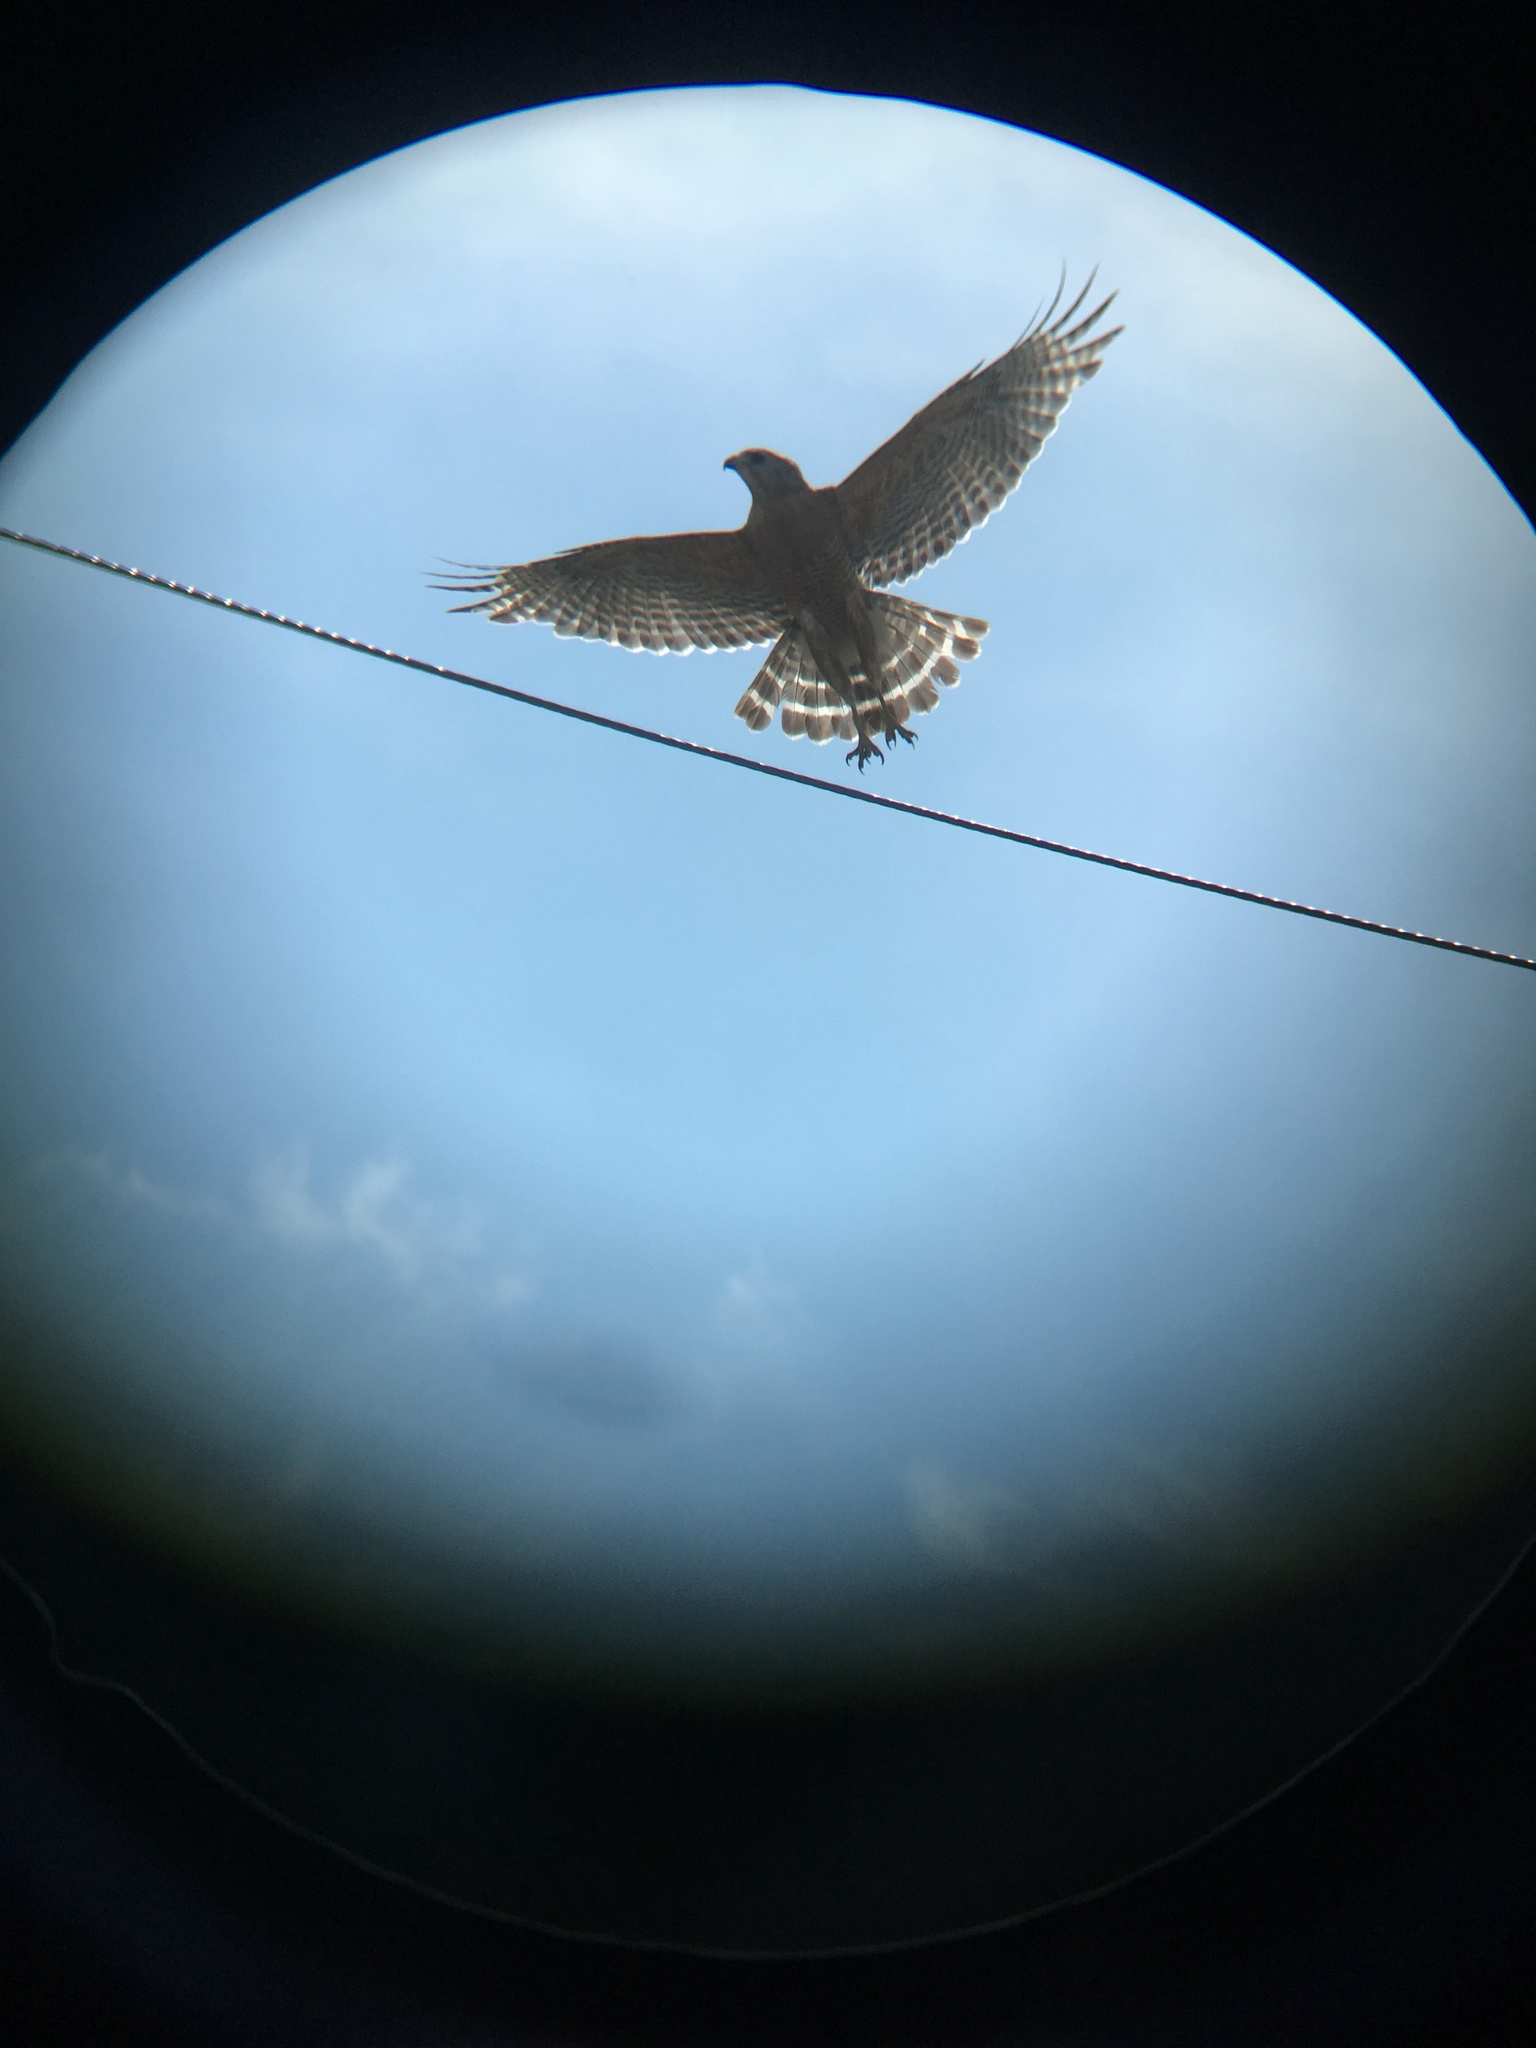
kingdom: Animalia
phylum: Chordata
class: Aves
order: Accipitriformes
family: Accipitridae
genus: Buteo
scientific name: Buteo lineatus
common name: Red-shouldered hawk
